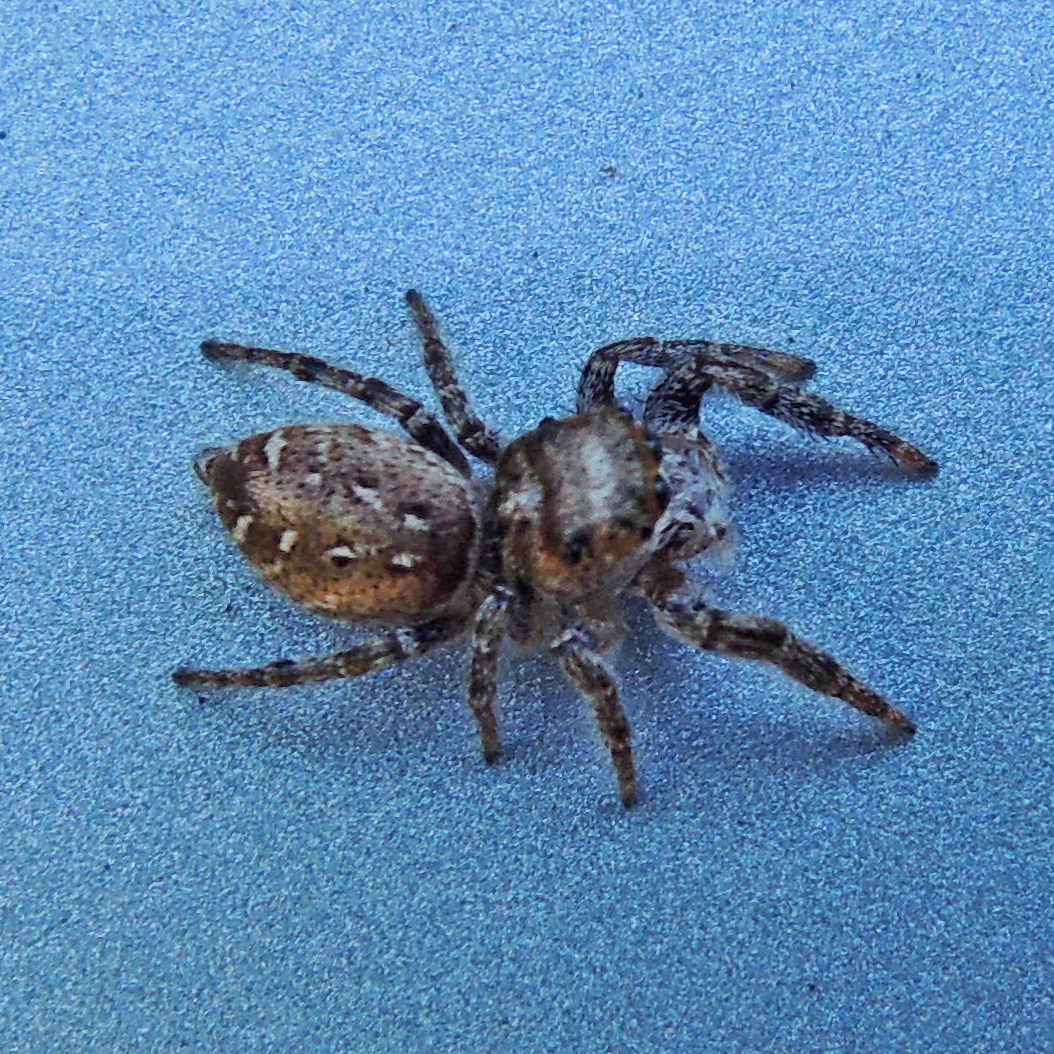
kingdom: Animalia
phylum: Arthropoda
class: Arachnida
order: Araneae
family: Salticidae
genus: Eris
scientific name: Eris militaris
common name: Bronze jumper
